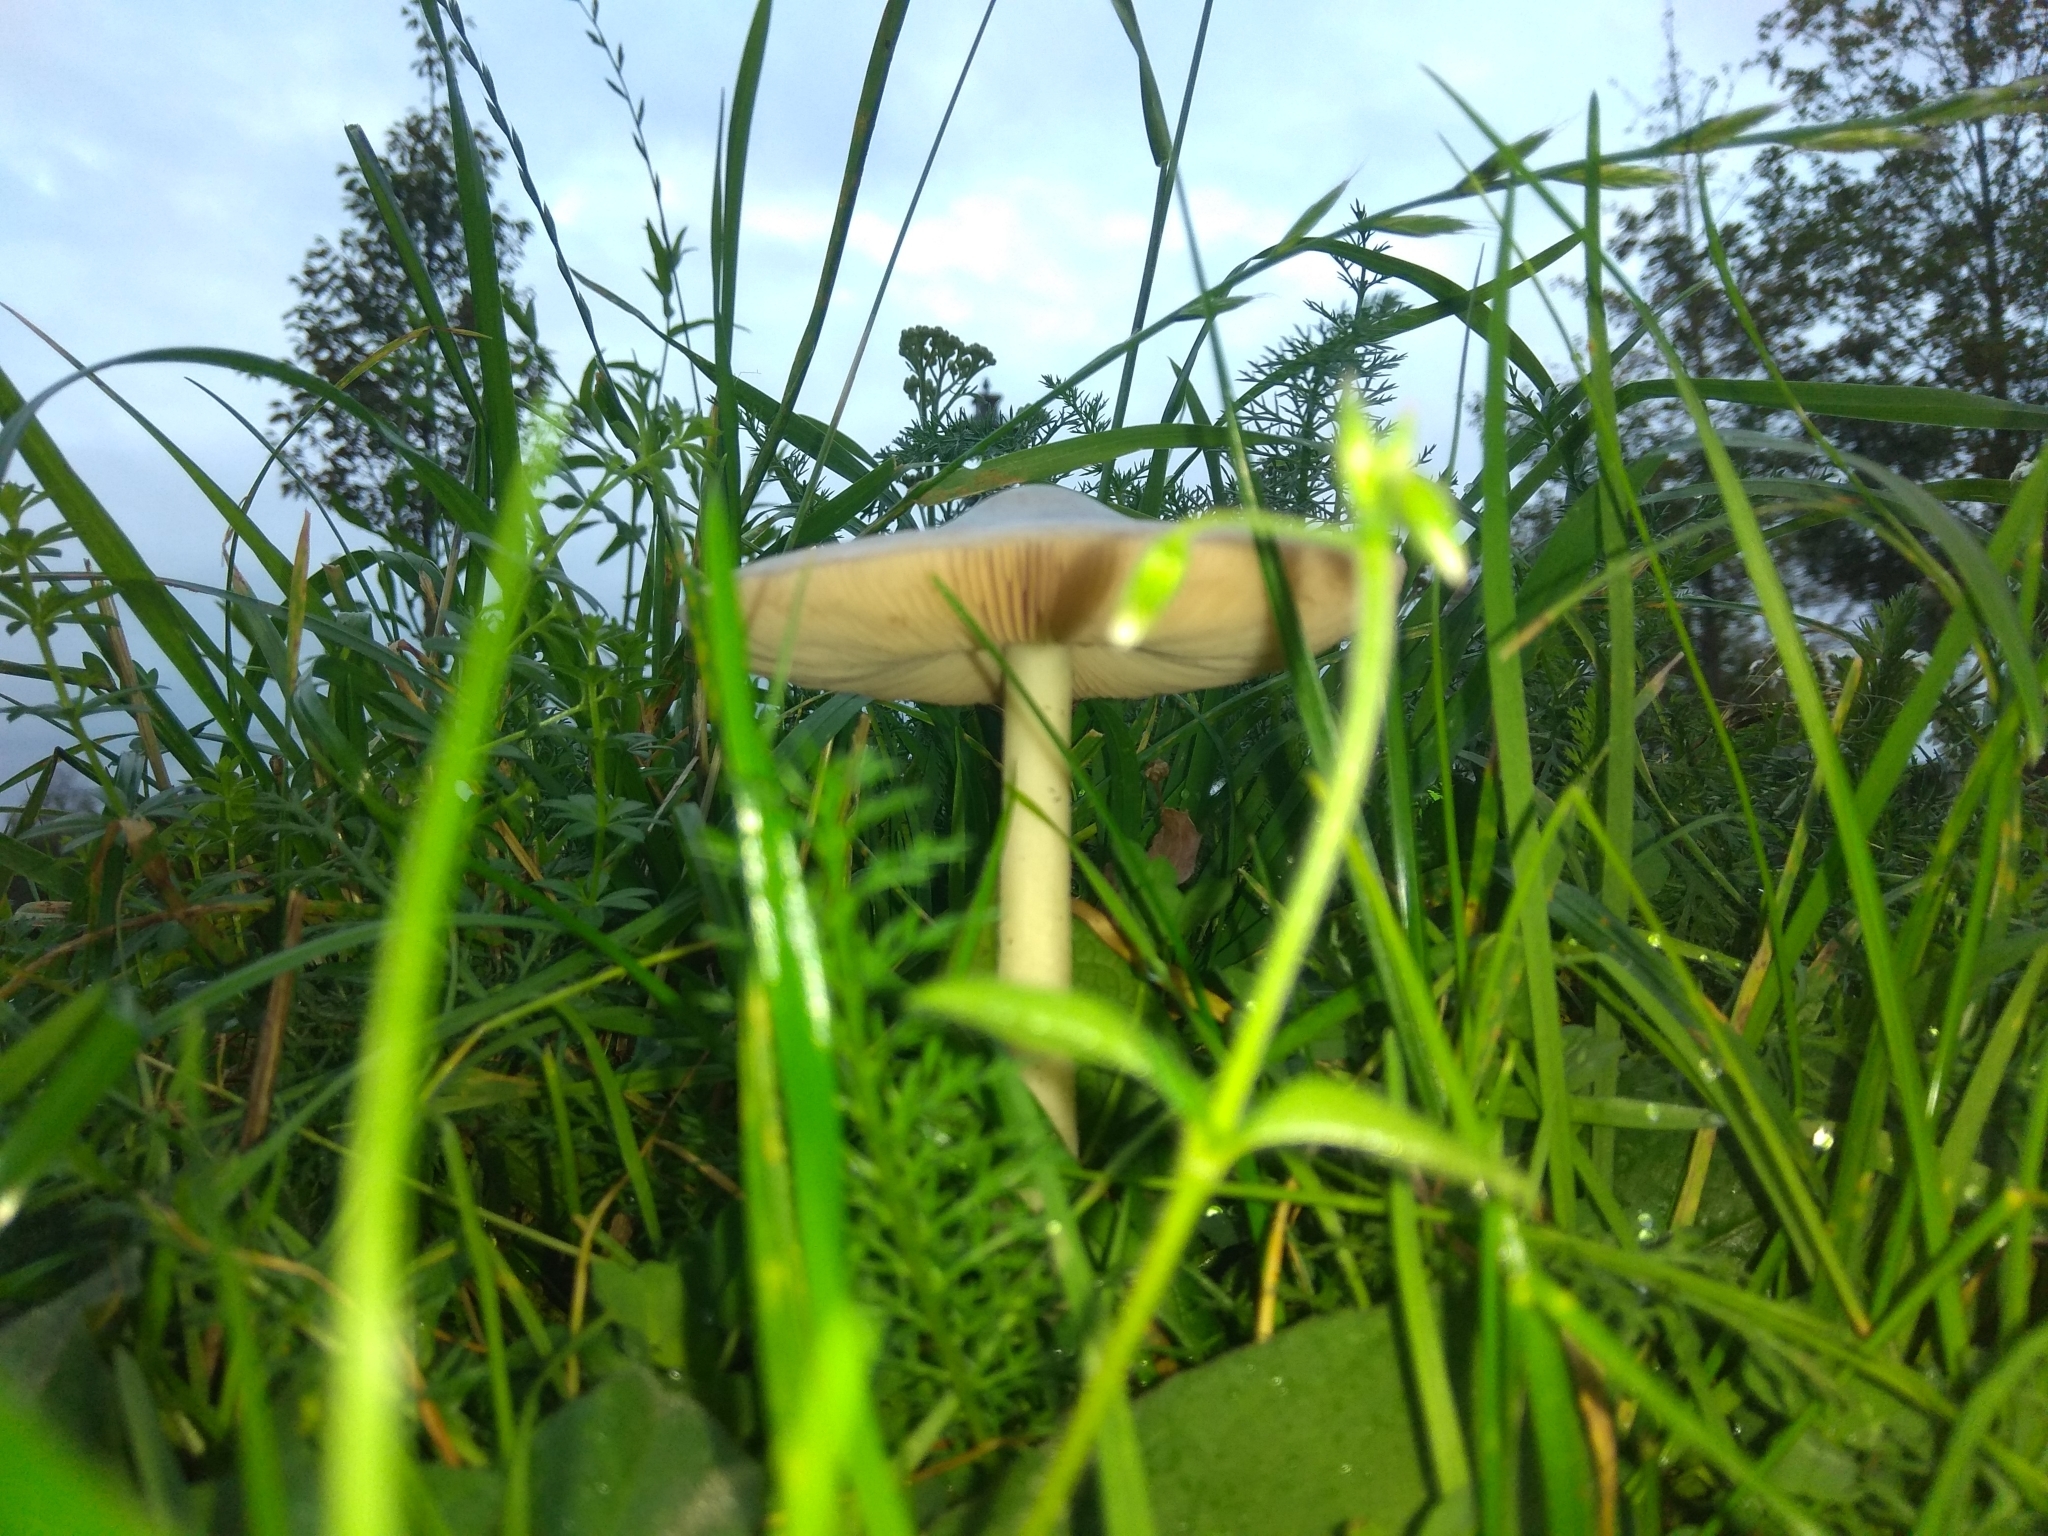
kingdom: Fungi
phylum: Basidiomycota
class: Agaricomycetes
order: Agaricales
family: Pluteaceae
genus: Volvopluteus
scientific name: Volvopluteus gloiocephalus
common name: Stubble rosegill
